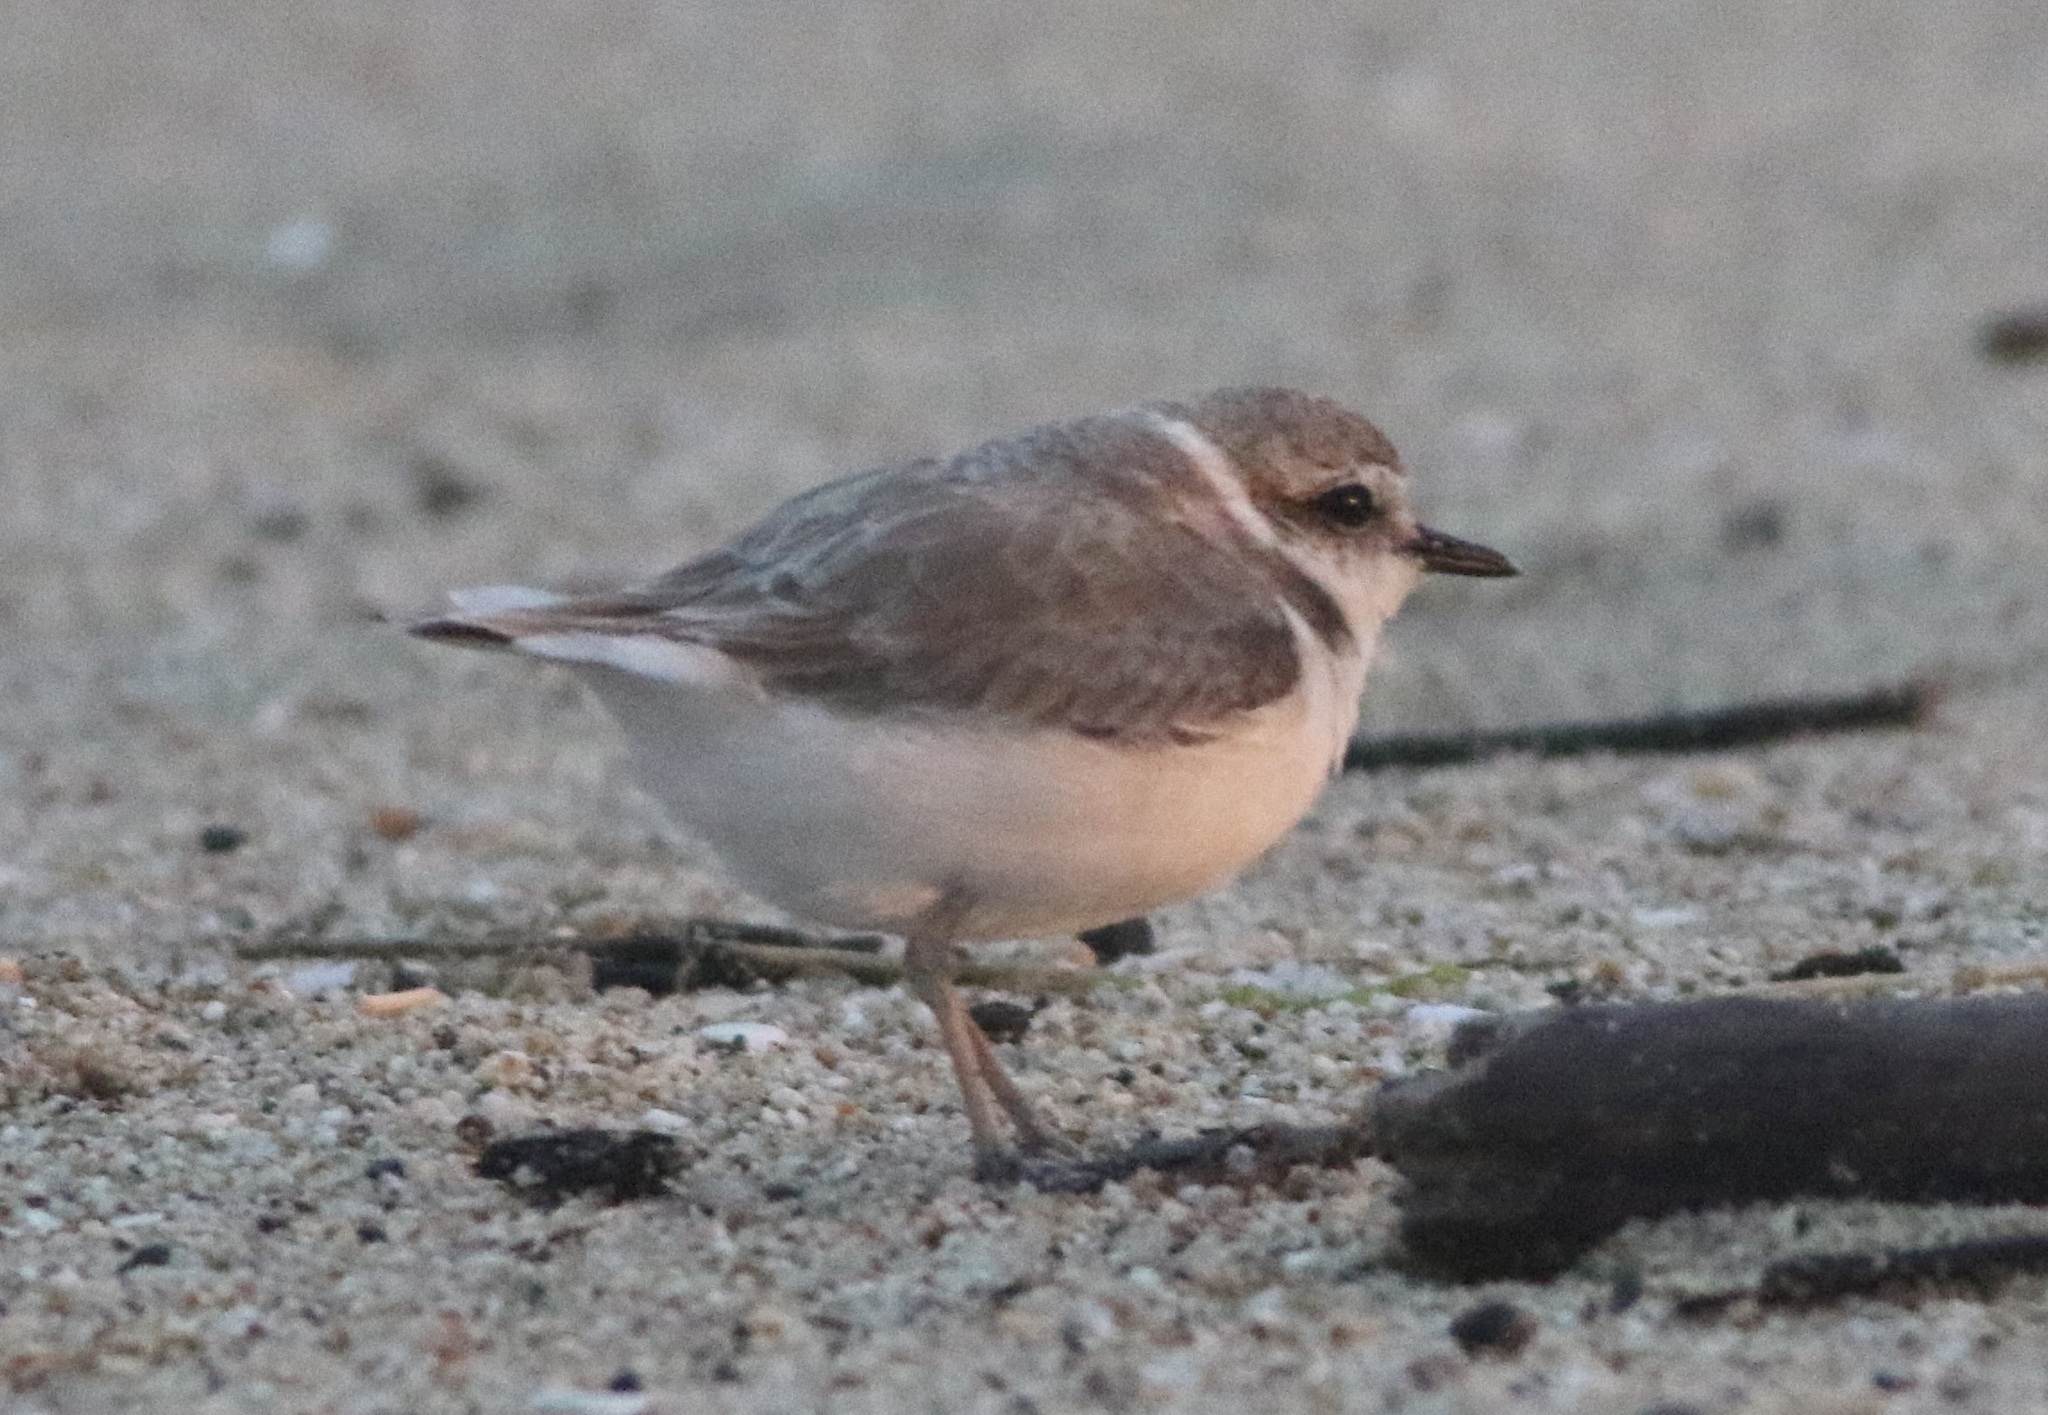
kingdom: Animalia
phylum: Chordata
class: Aves
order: Charadriiformes
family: Charadriidae
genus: Anarhynchus
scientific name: Anarhynchus
